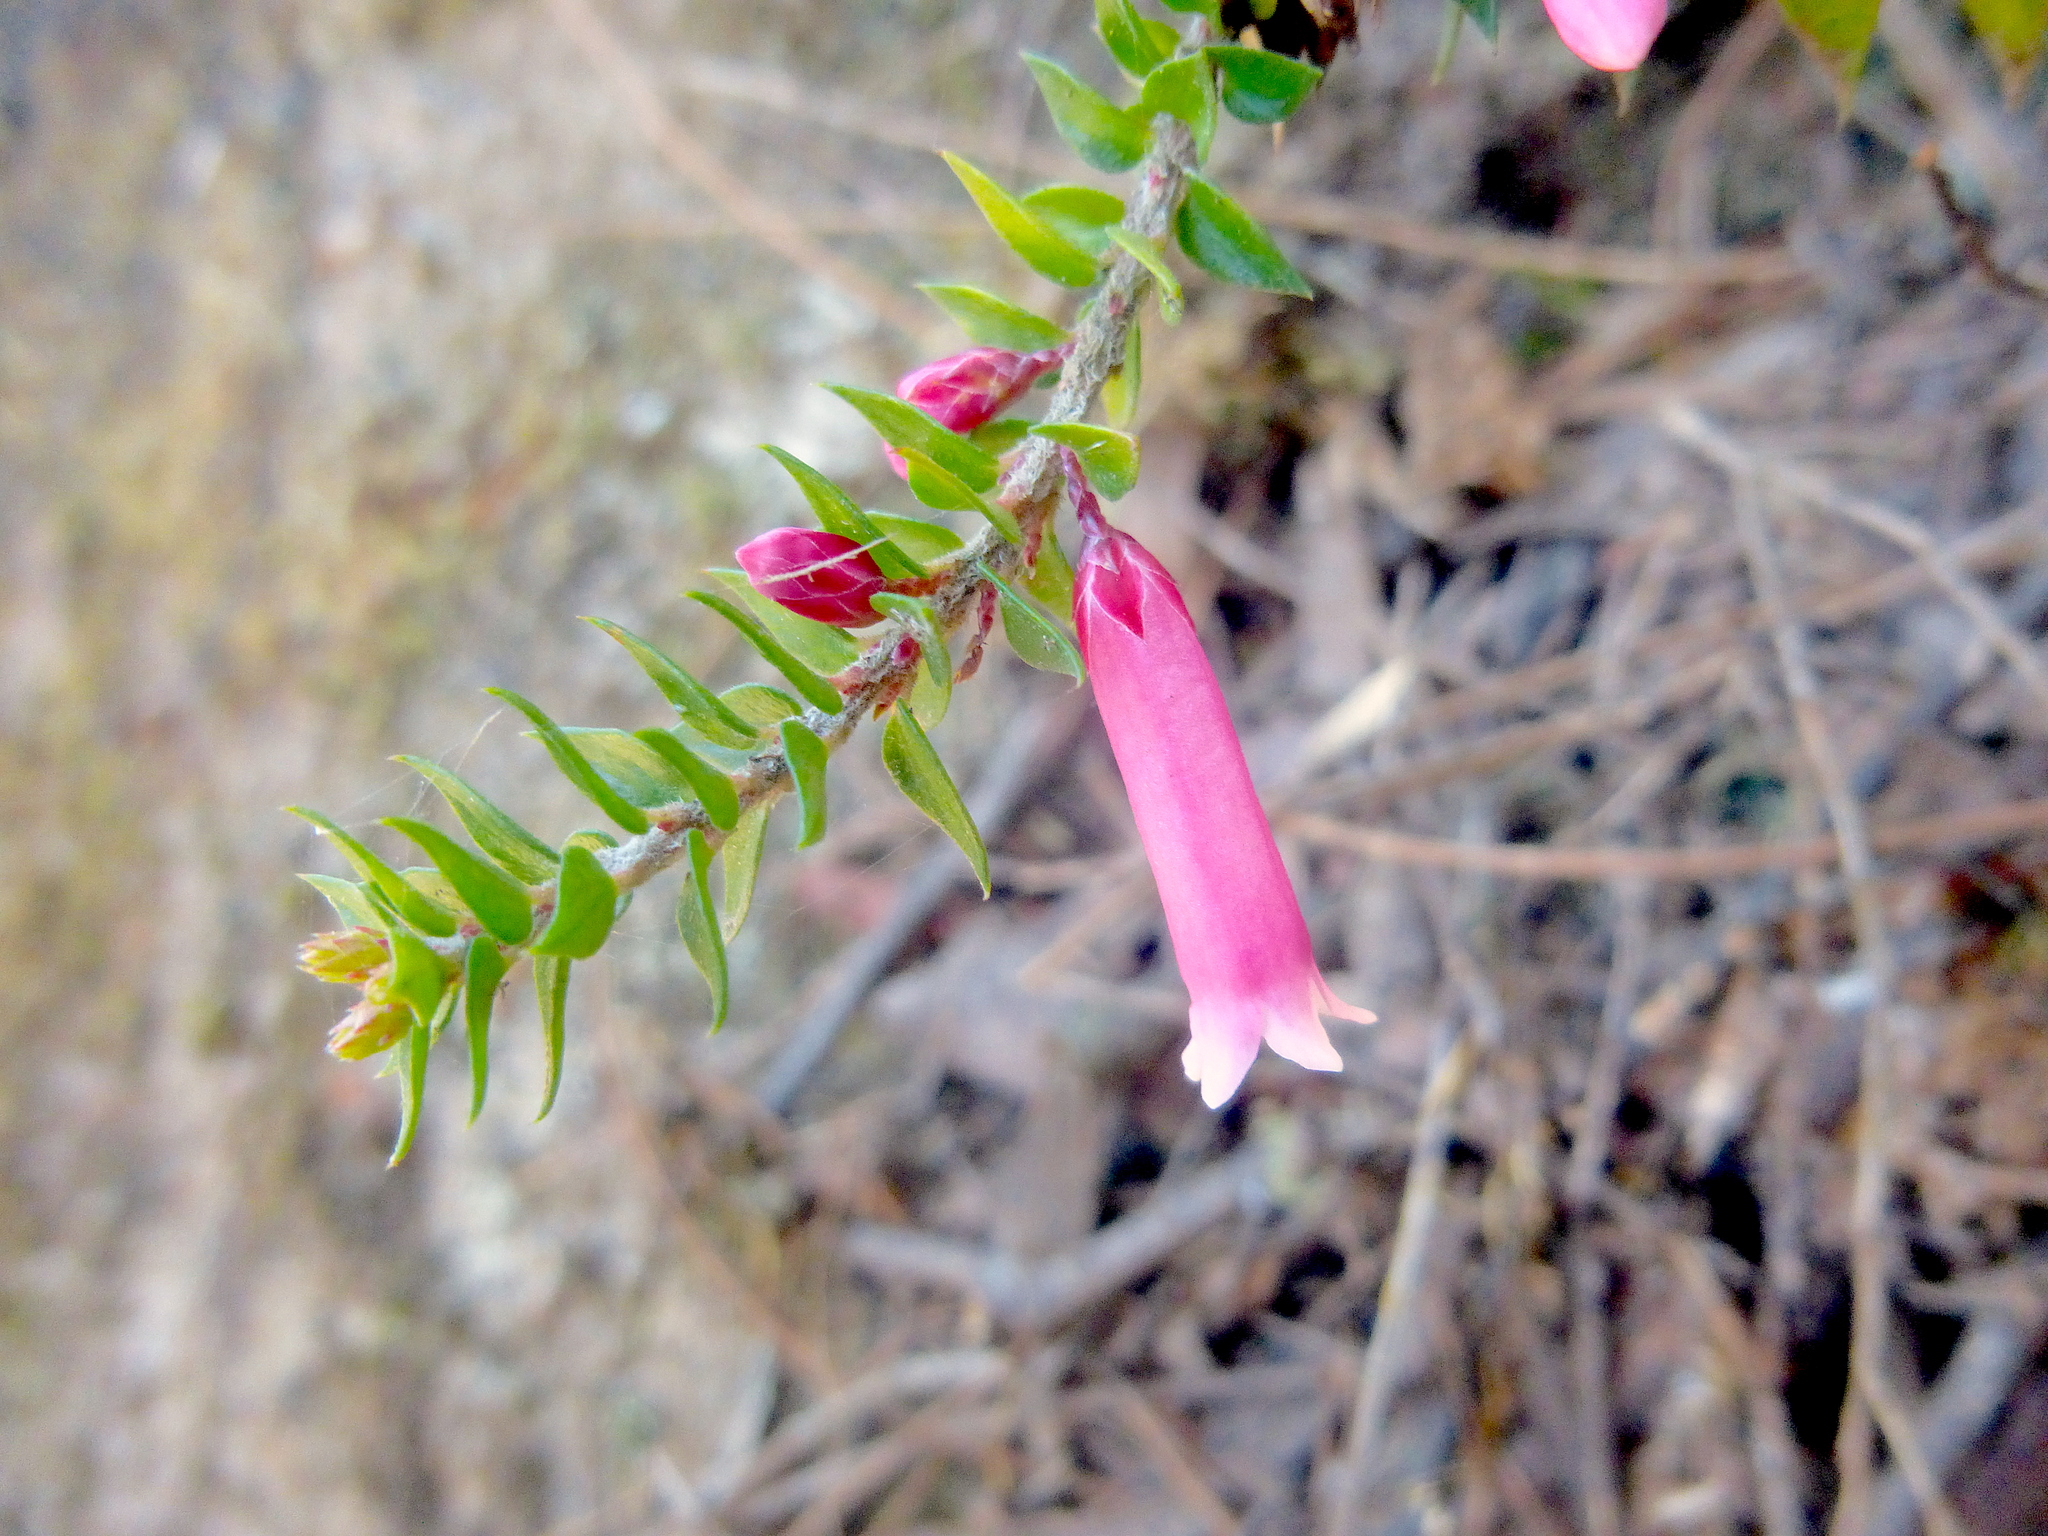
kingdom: Plantae
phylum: Tracheophyta
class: Magnoliopsida
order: Ericales
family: Ericaceae
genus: Epacris
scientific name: Epacris reclinata
